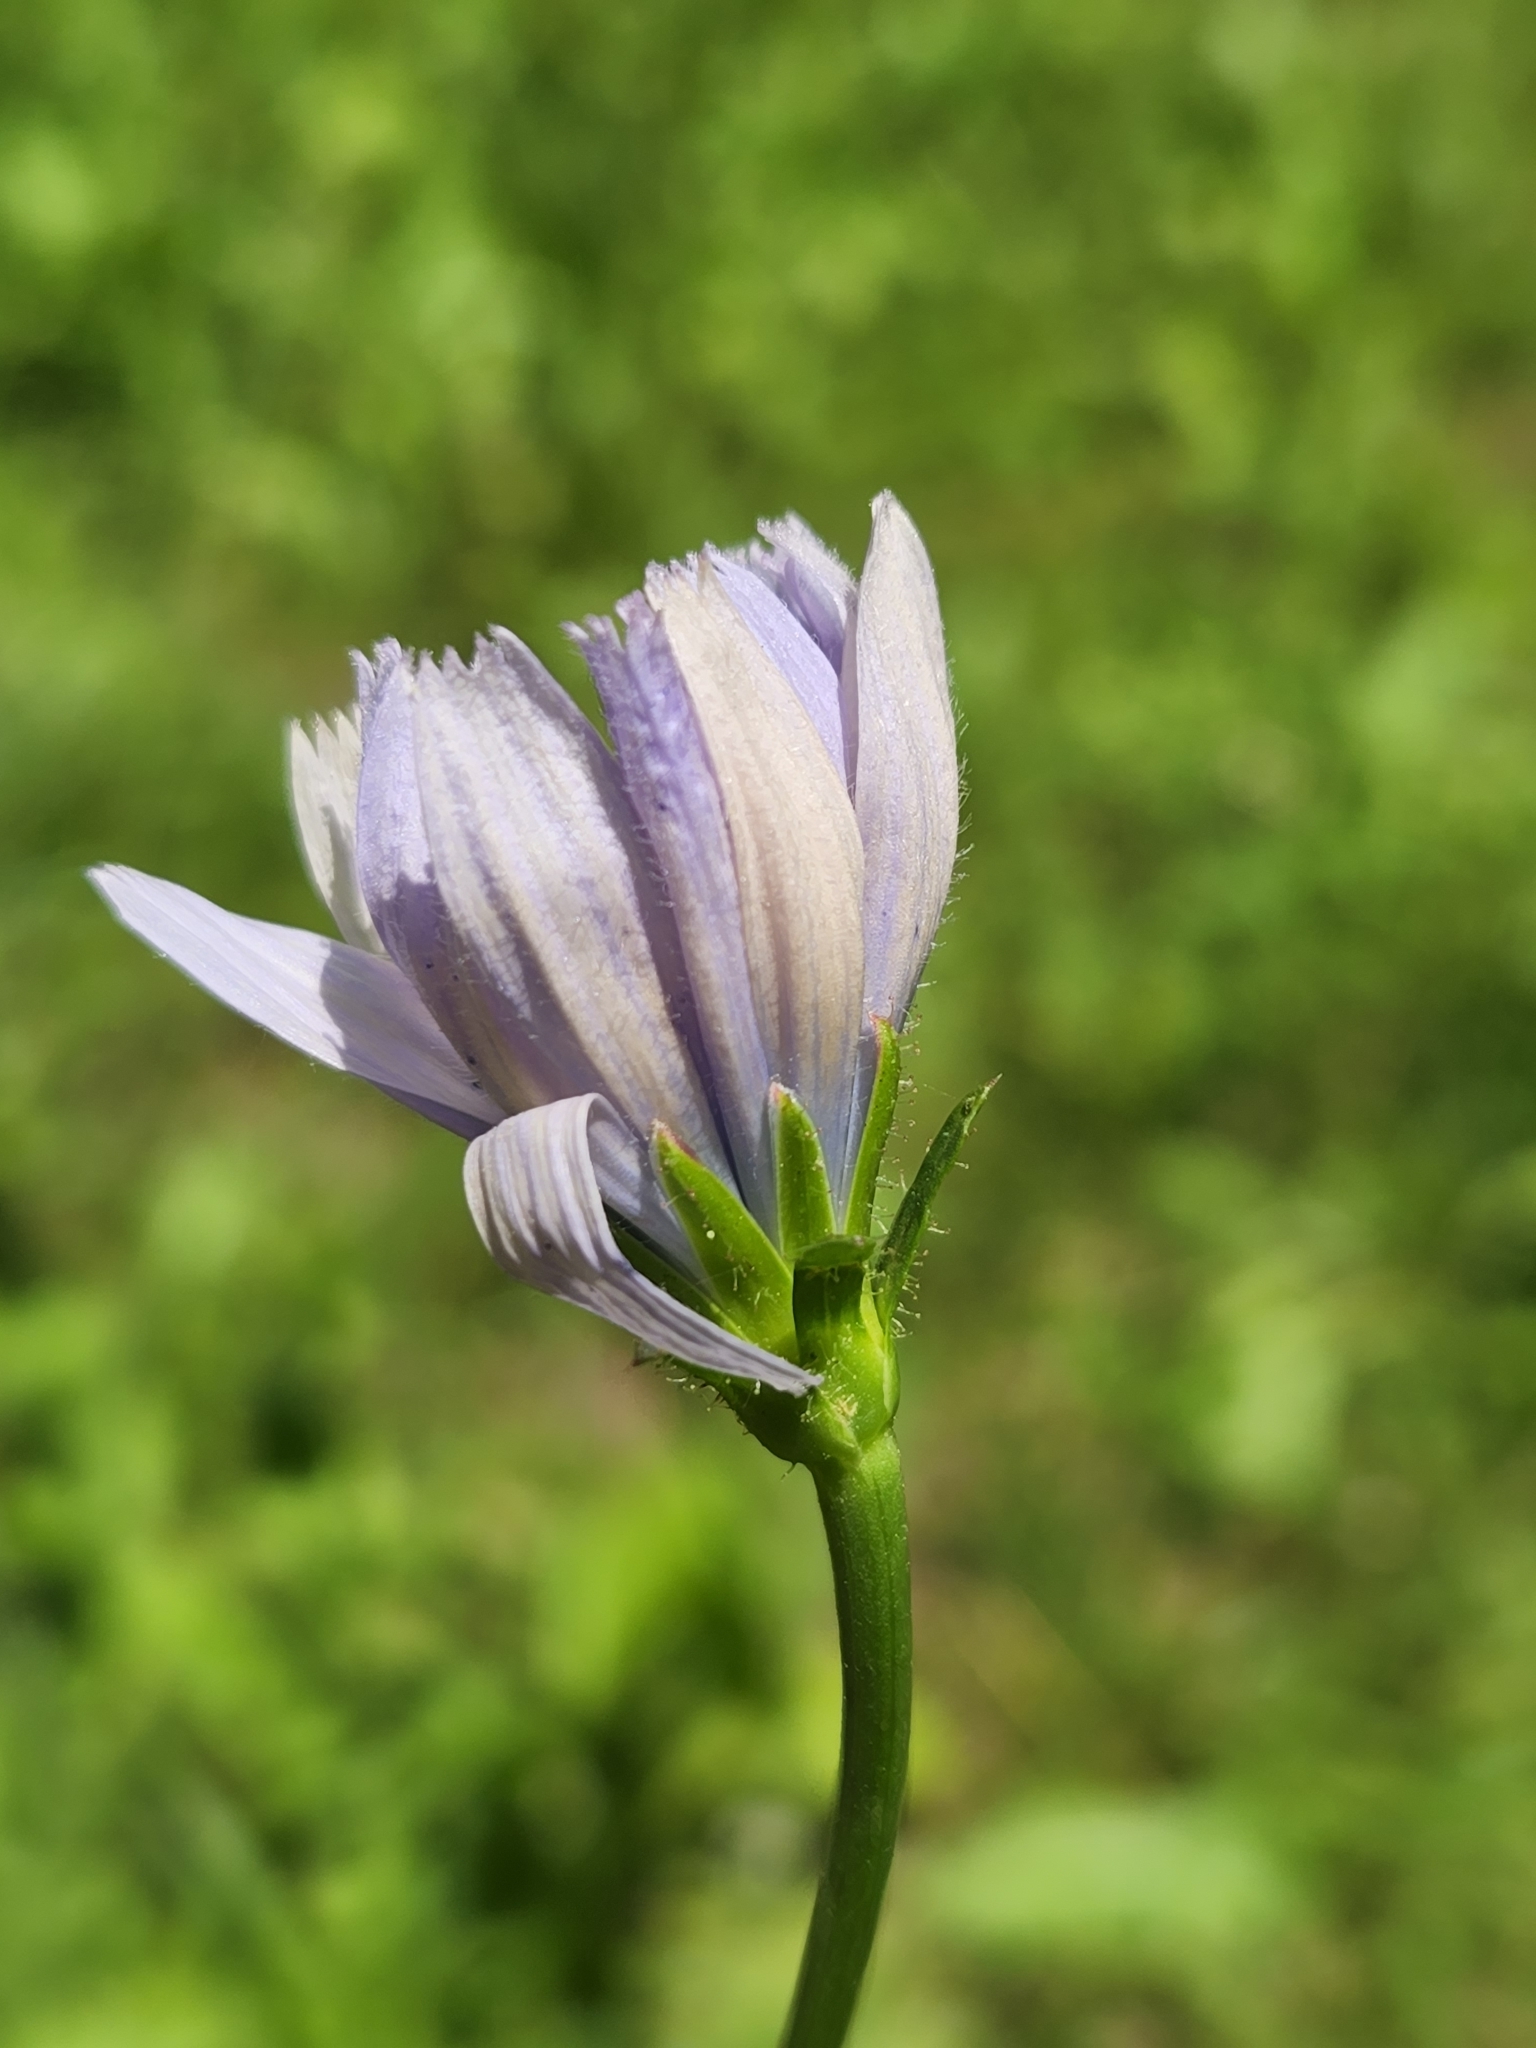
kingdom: Plantae
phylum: Tracheophyta
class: Magnoliopsida
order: Asterales
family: Asteraceae
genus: Cichorium
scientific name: Cichorium intybus
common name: Chicory
